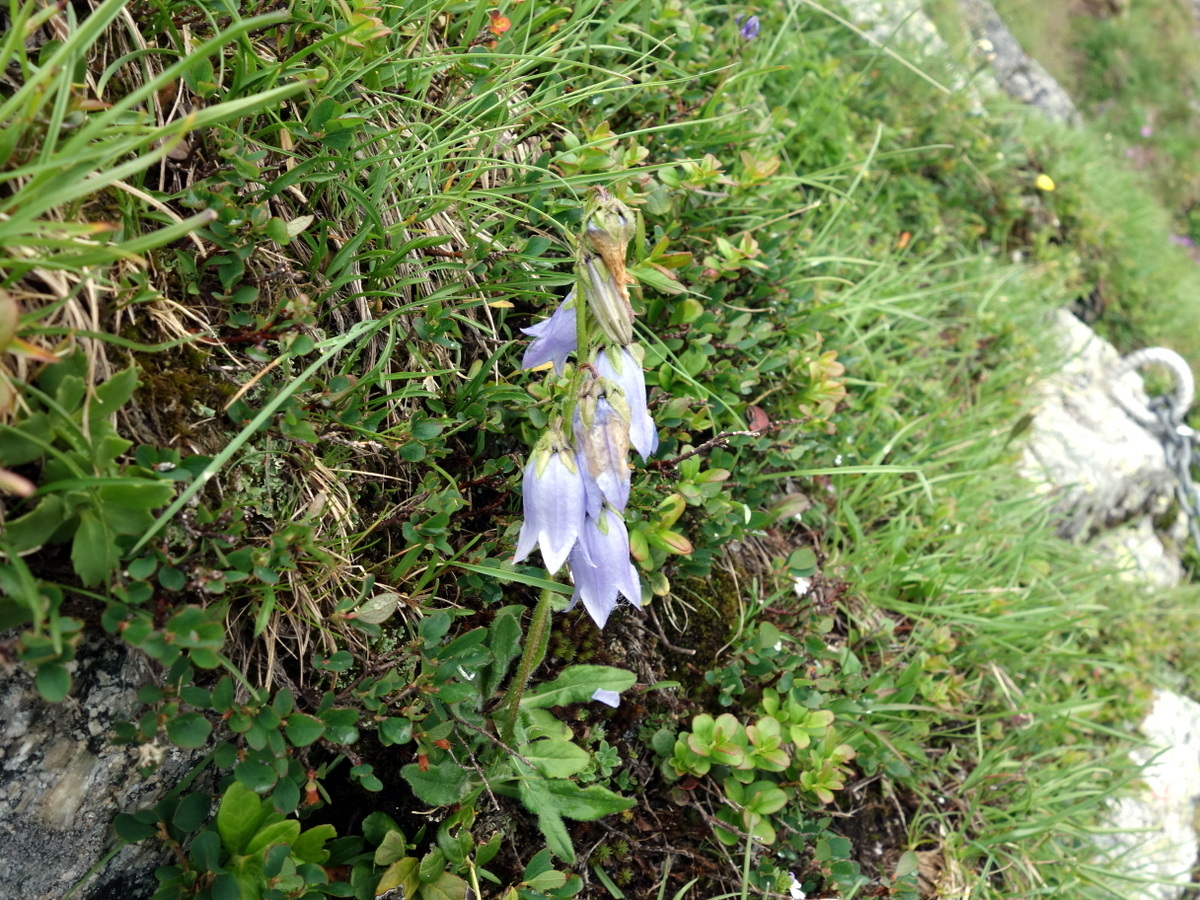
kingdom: Plantae
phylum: Tracheophyta
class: Magnoliopsida
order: Asterales
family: Campanulaceae
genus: Campanula
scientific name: Campanula barbata
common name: Bearded bellflower
